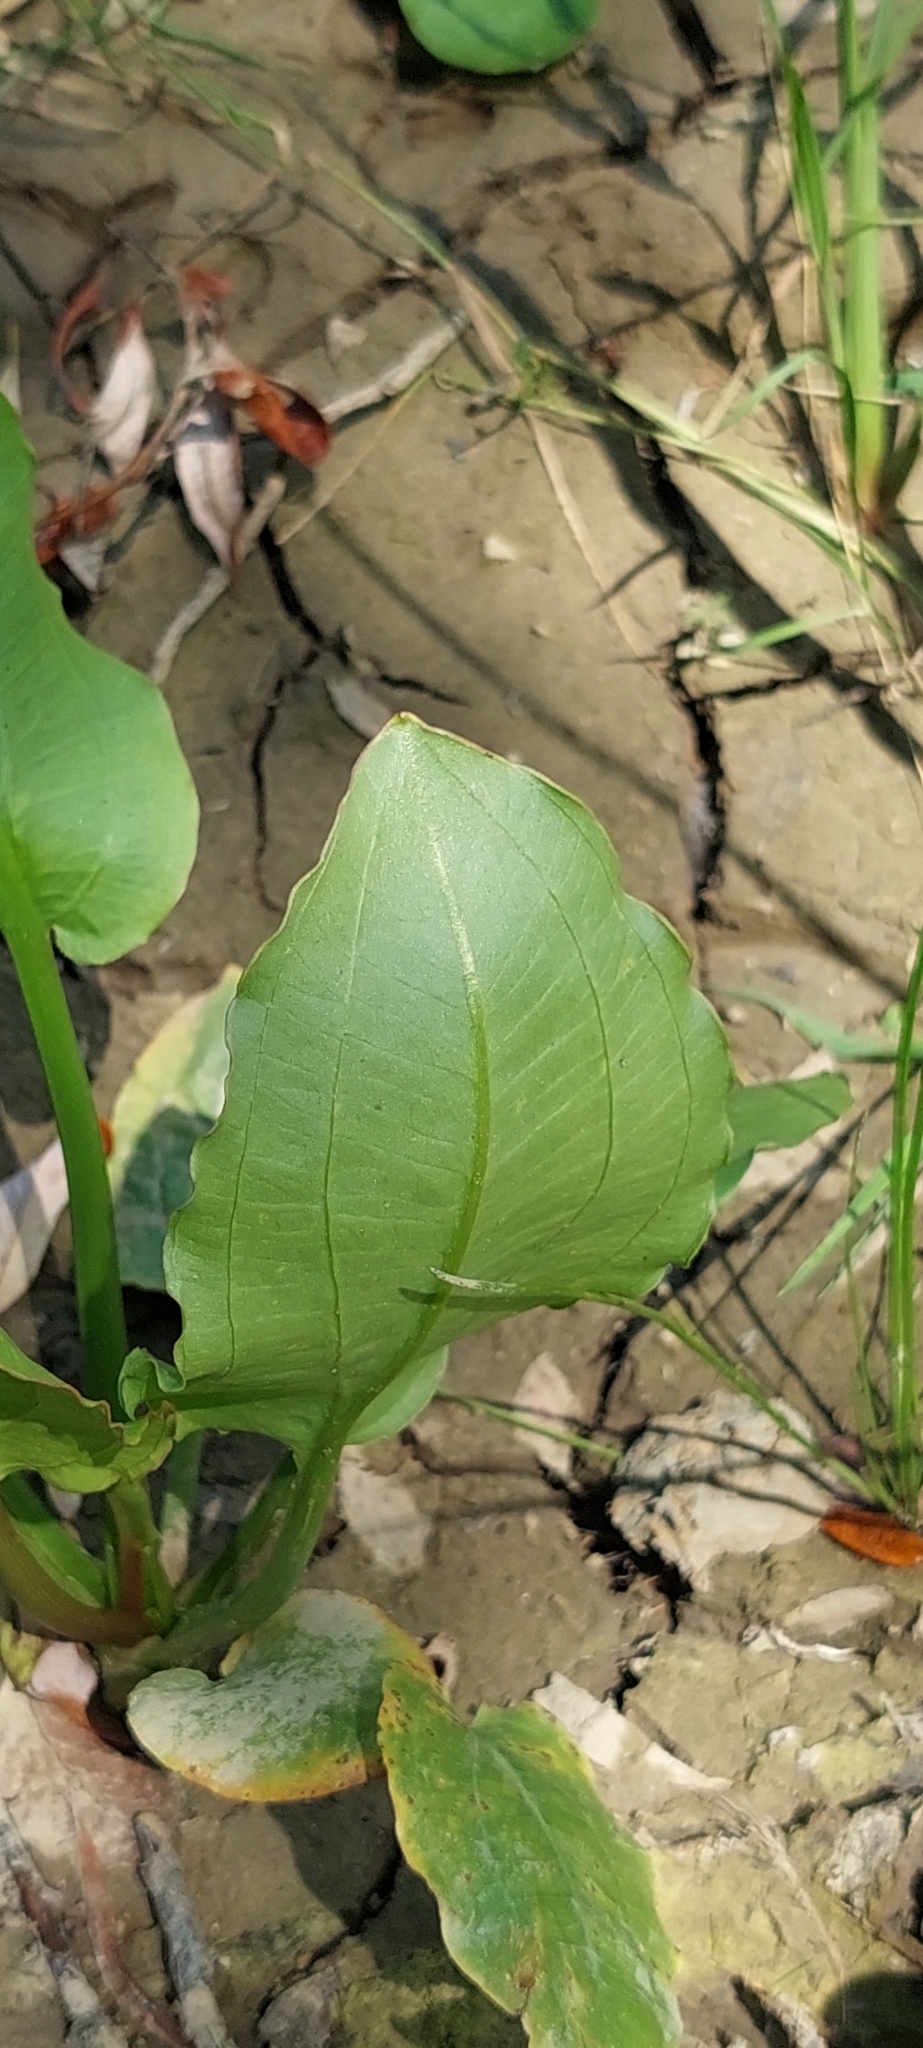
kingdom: Plantae
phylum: Tracheophyta
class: Liliopsida
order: Alismatales
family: Alismataceae
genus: Alisma
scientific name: Alisma plantago-aquatica
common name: Water-plantain
